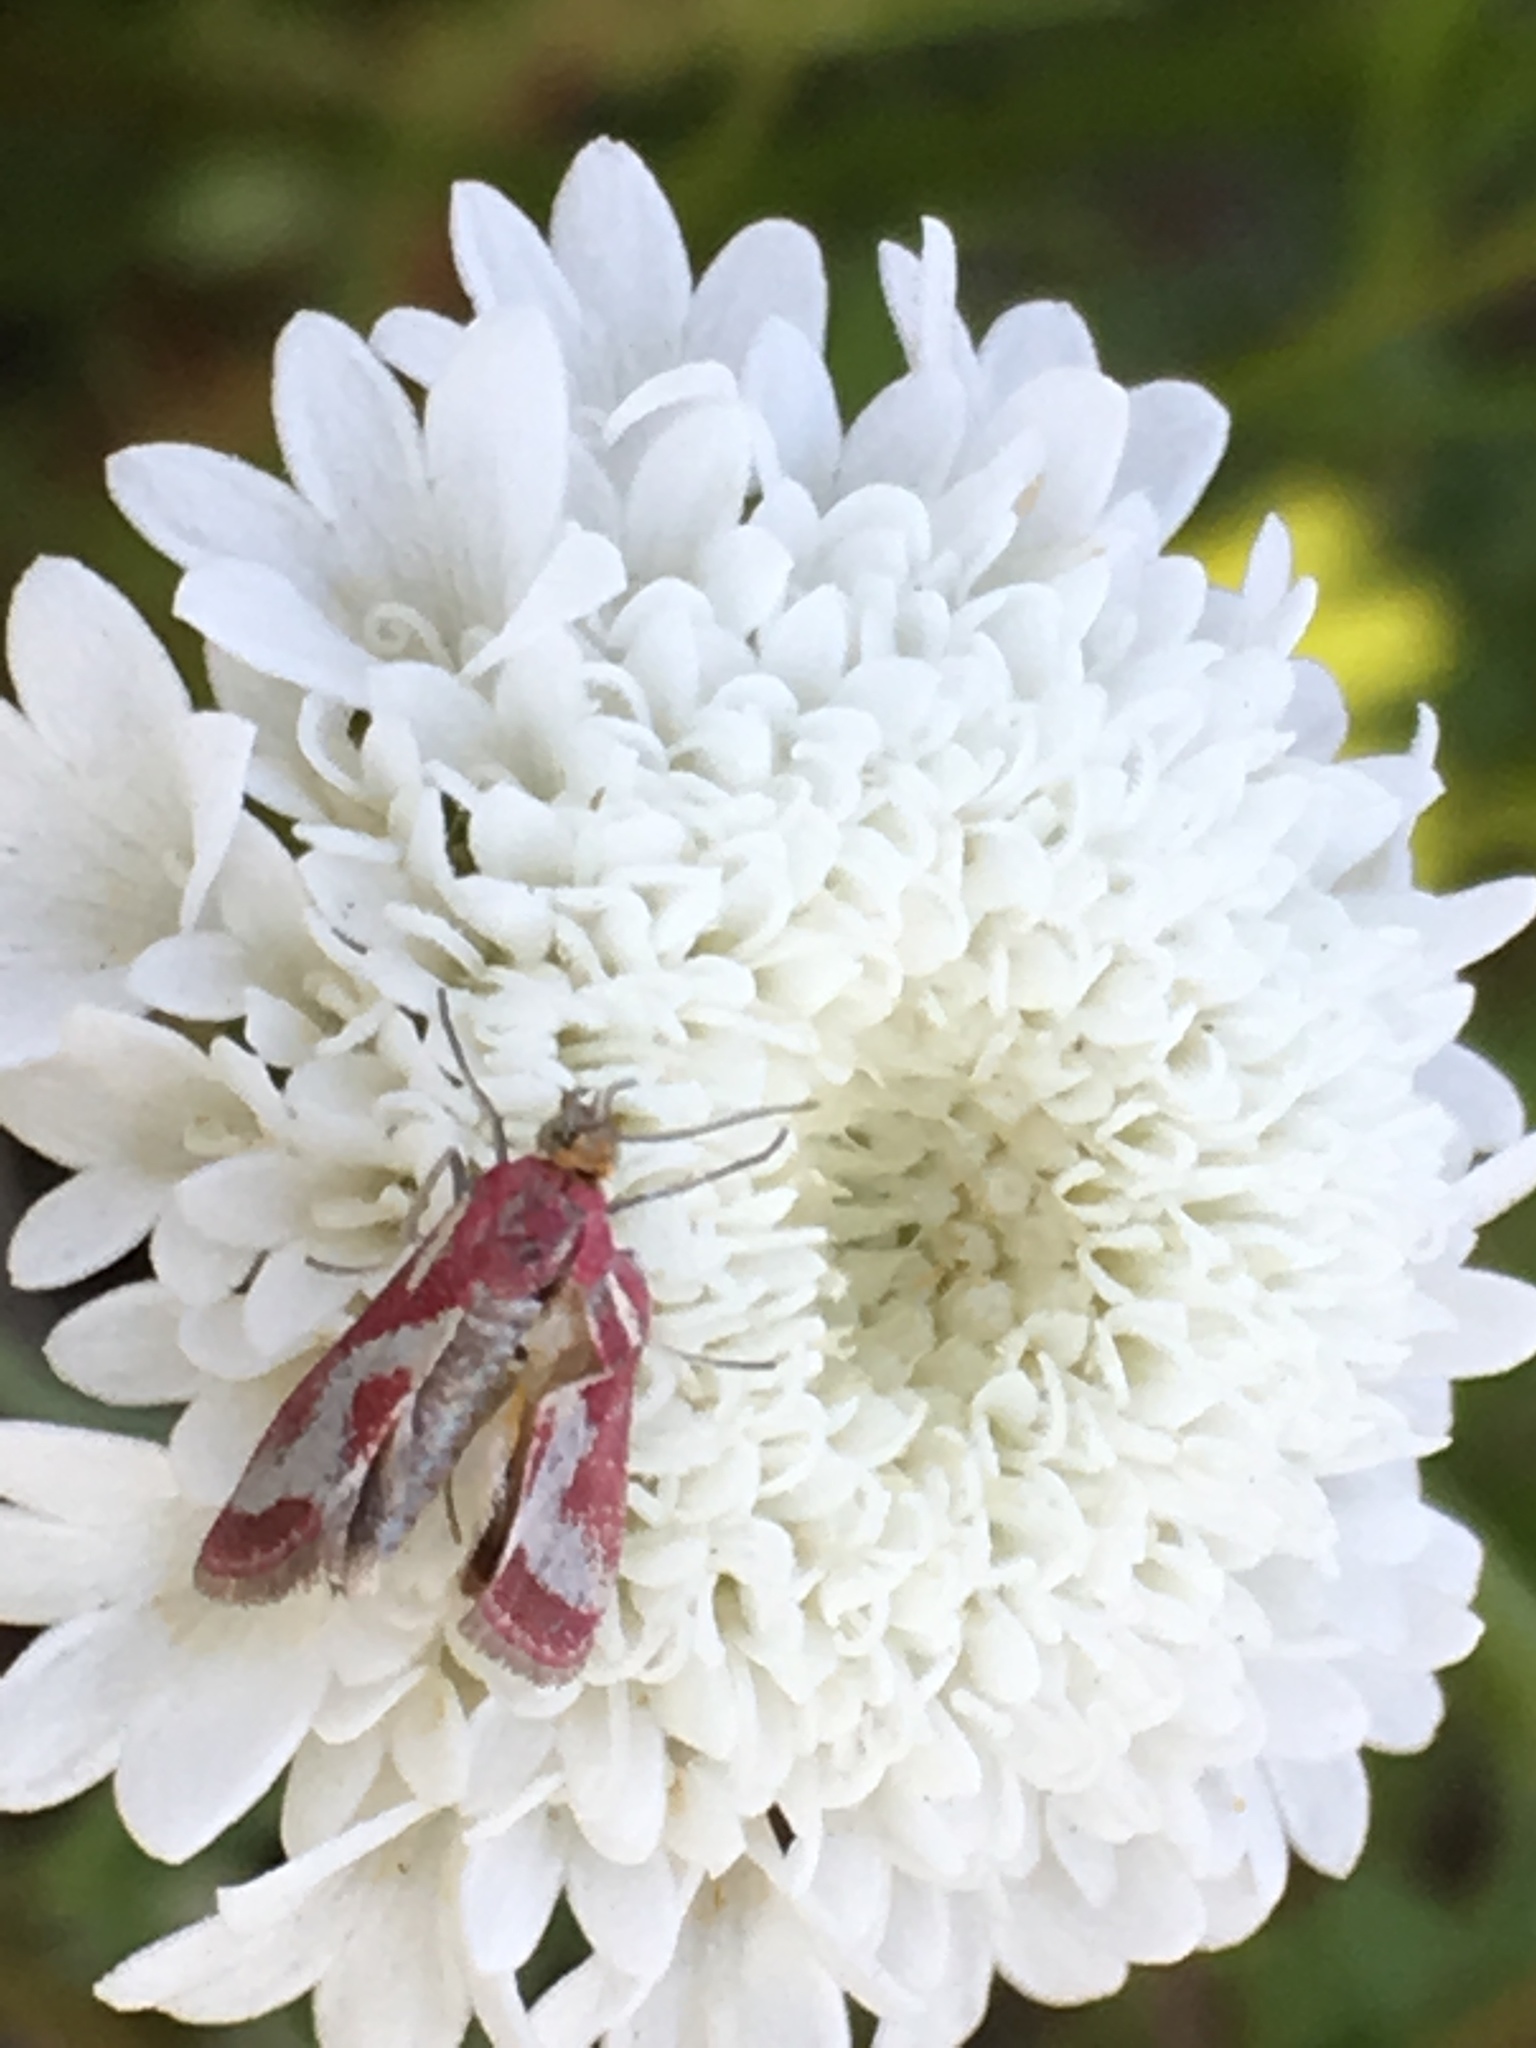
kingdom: Animalia
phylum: Arthropoda
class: Insecta
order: Lepidoptera
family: Crambidae
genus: Noctueliopsis
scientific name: Noctueliopsis aridalis
